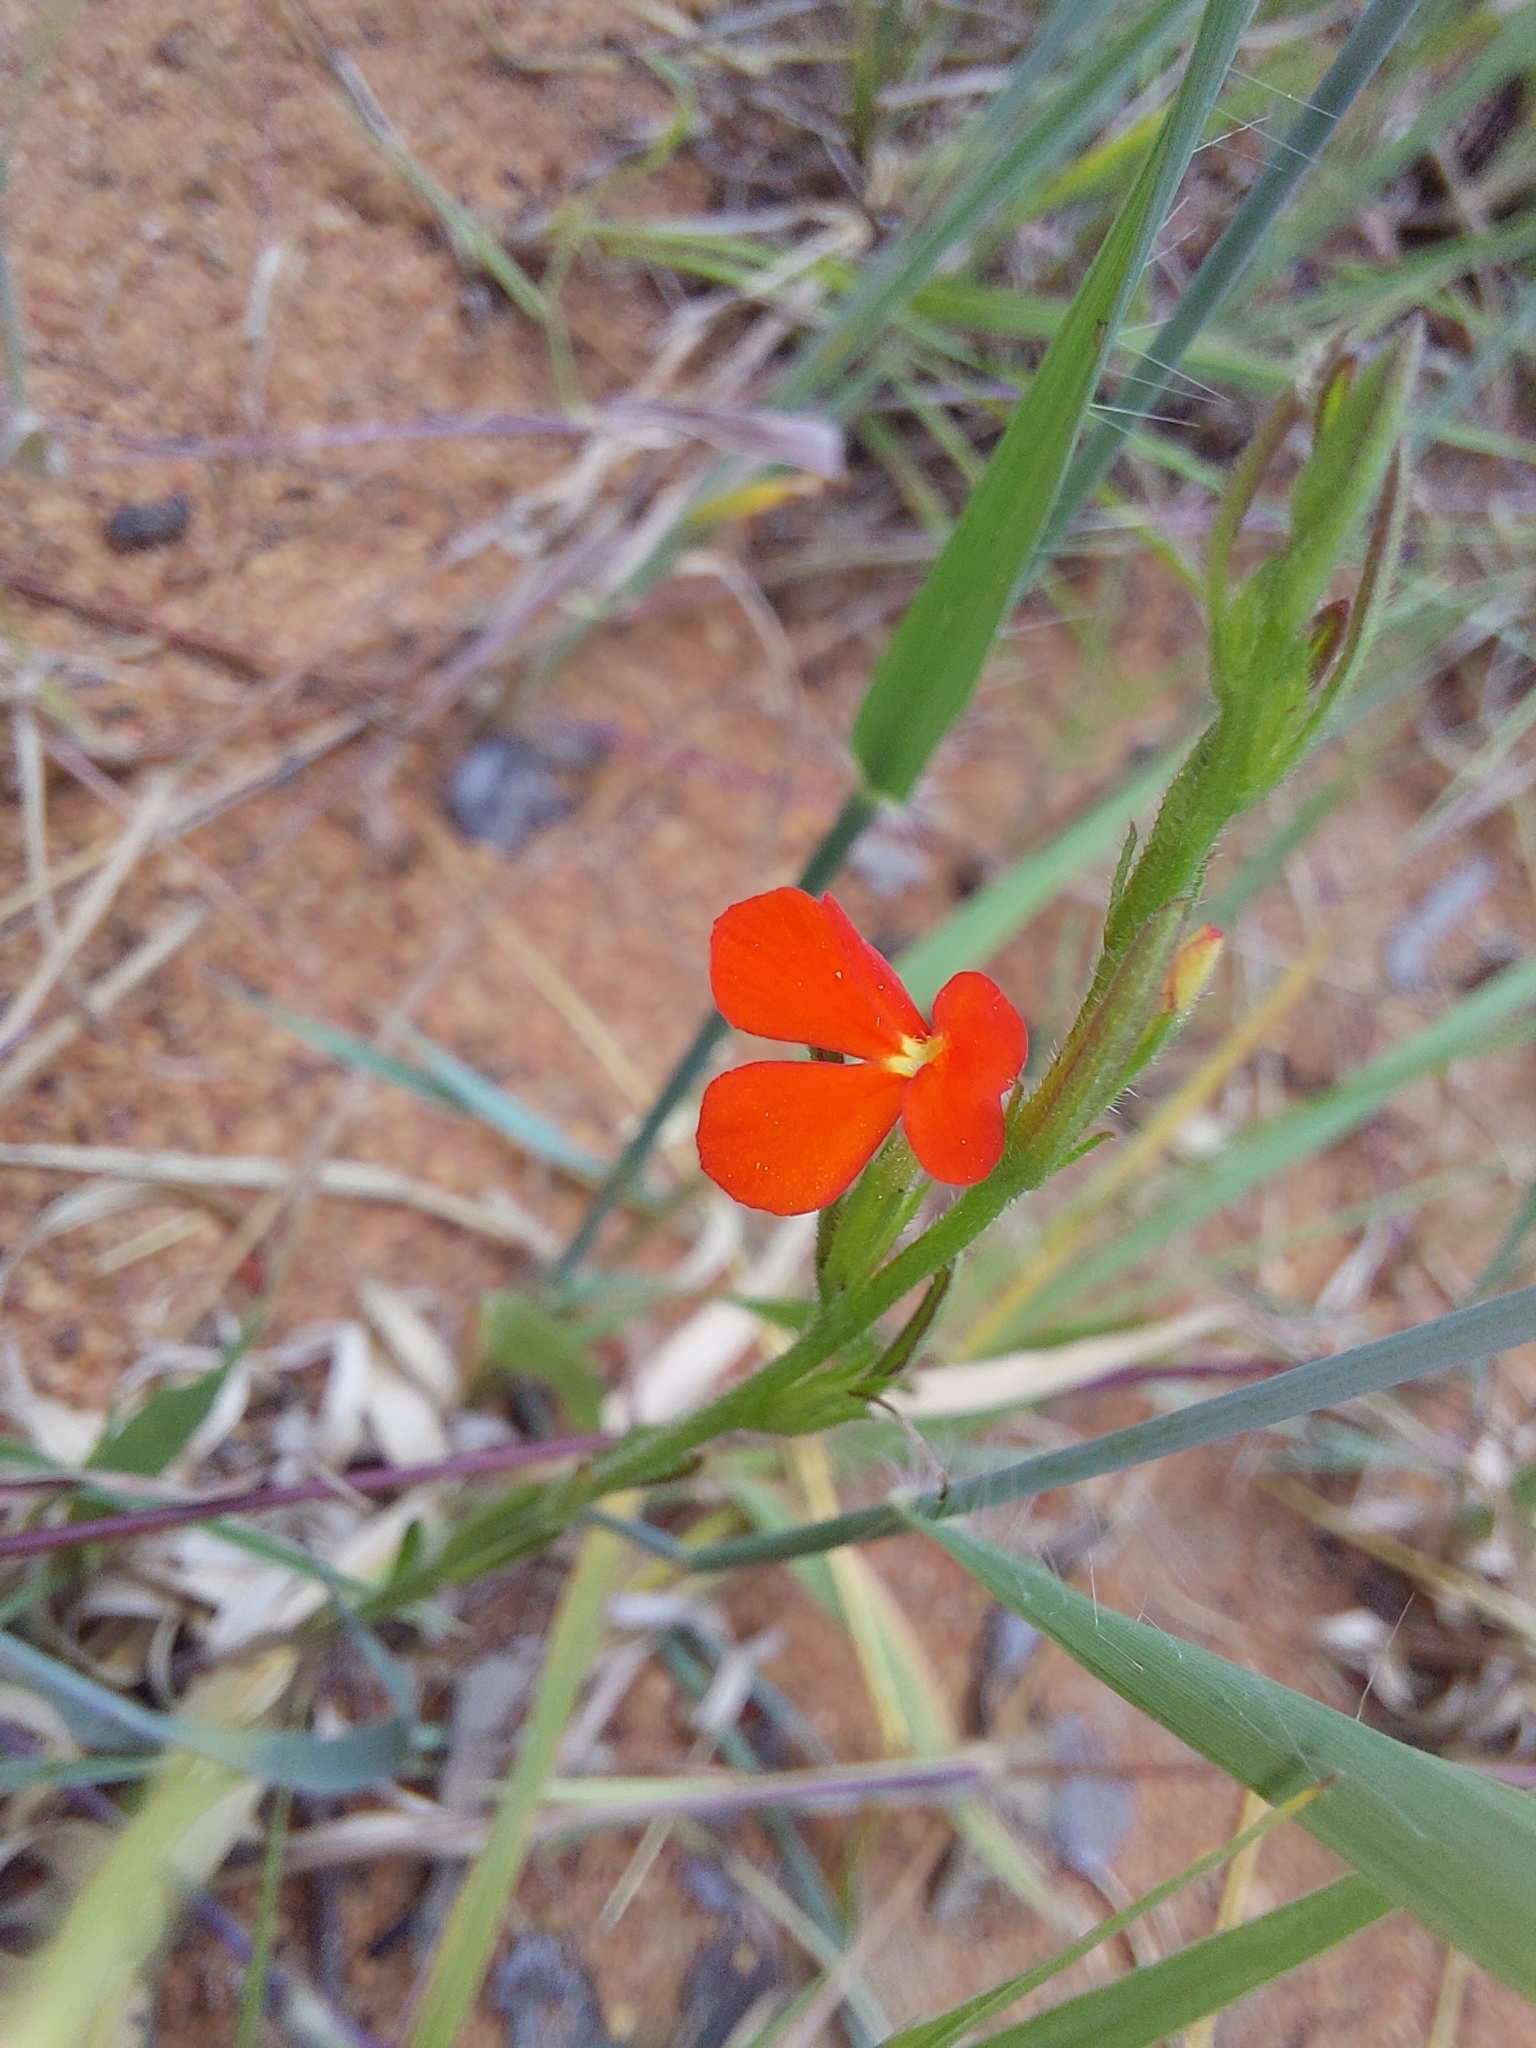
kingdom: Plantae
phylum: Tracheophyta
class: Magnoliopsida
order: Lamiales
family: Orobanchaceae
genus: Striga
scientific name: Striga asiatica
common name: Asiatic witchweed
